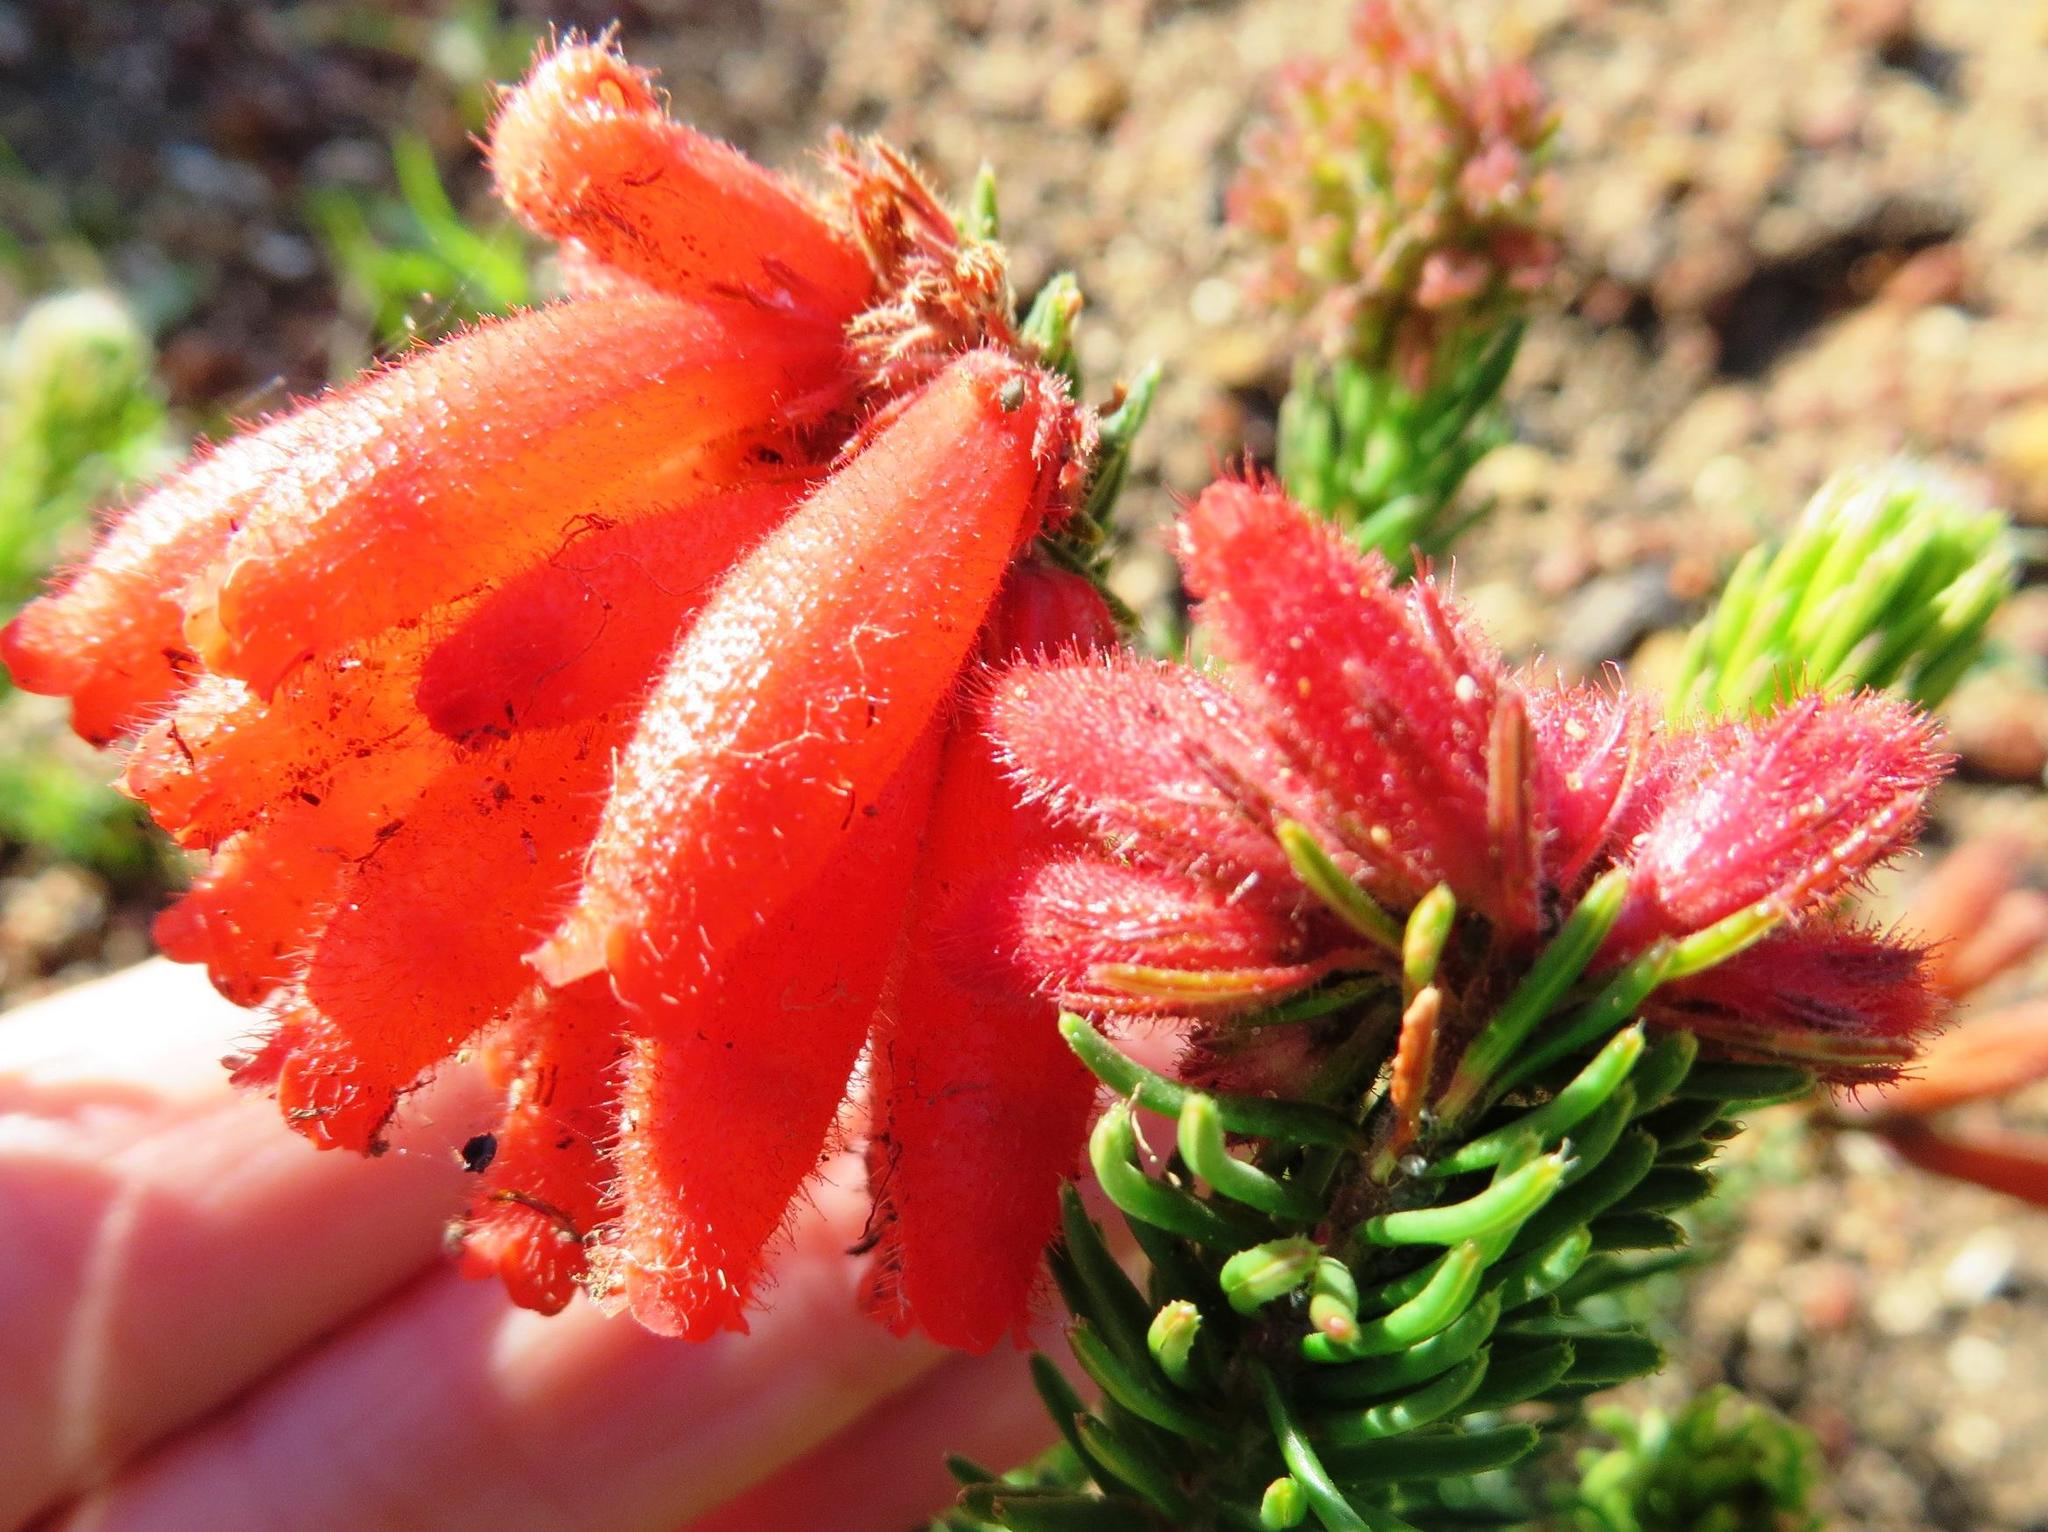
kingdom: Plantae
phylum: Tracheophyta
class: Magnoliopsida
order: Ericales
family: Ericaceae
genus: Erica
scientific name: Erica cerinthoides
